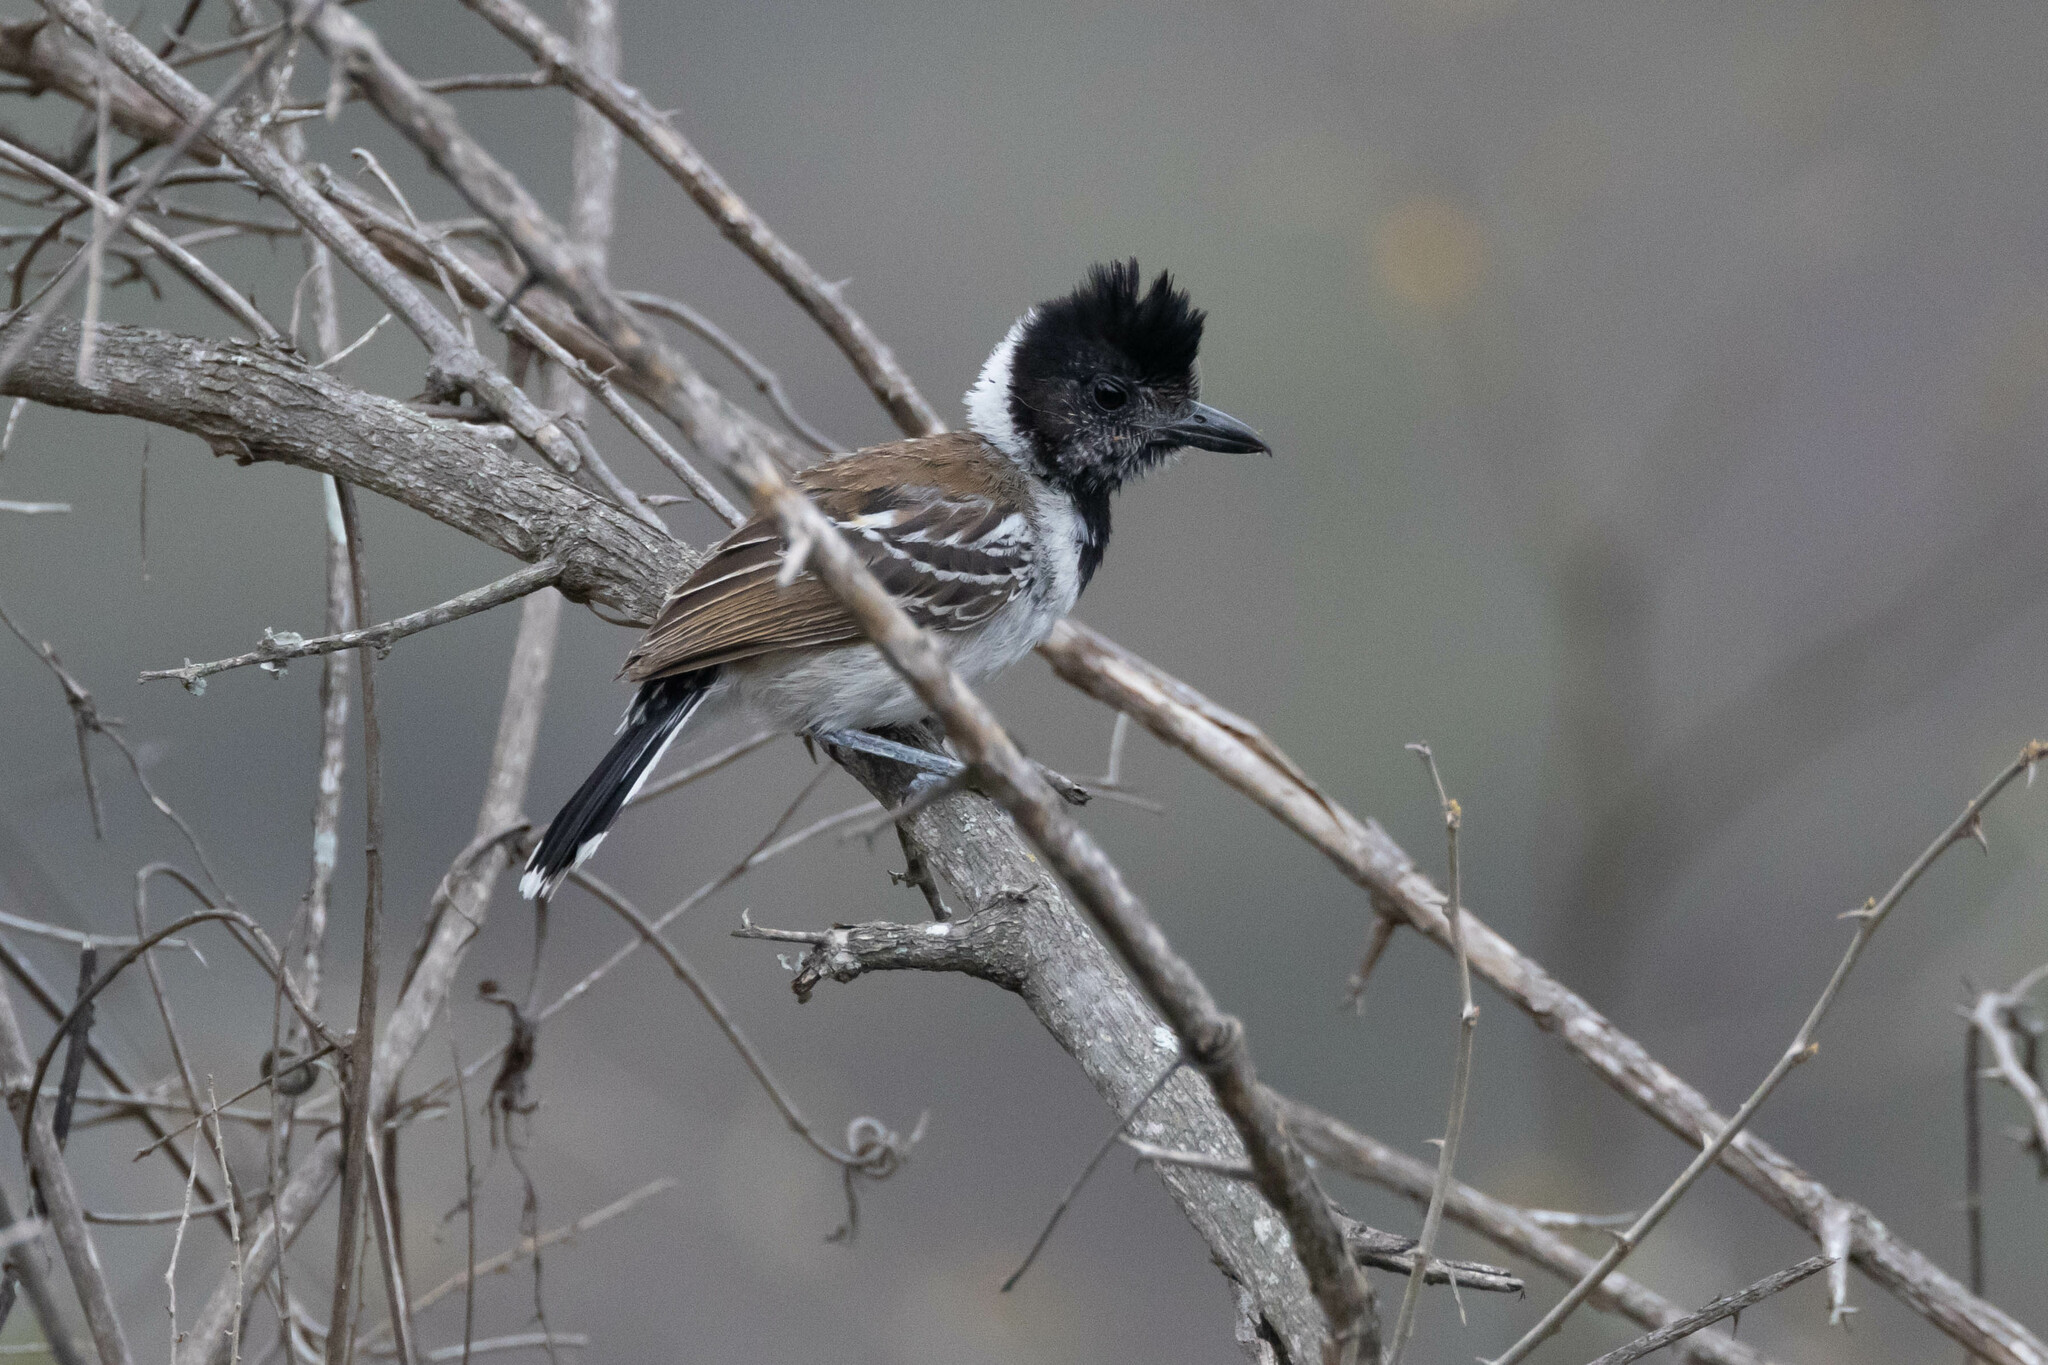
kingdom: Animalia
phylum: Chordata
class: Aves
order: Passeriformes
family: Thamnophilidae
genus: Thamnophilus
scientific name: Thamnophilus bernardi
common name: Collared antshrike
